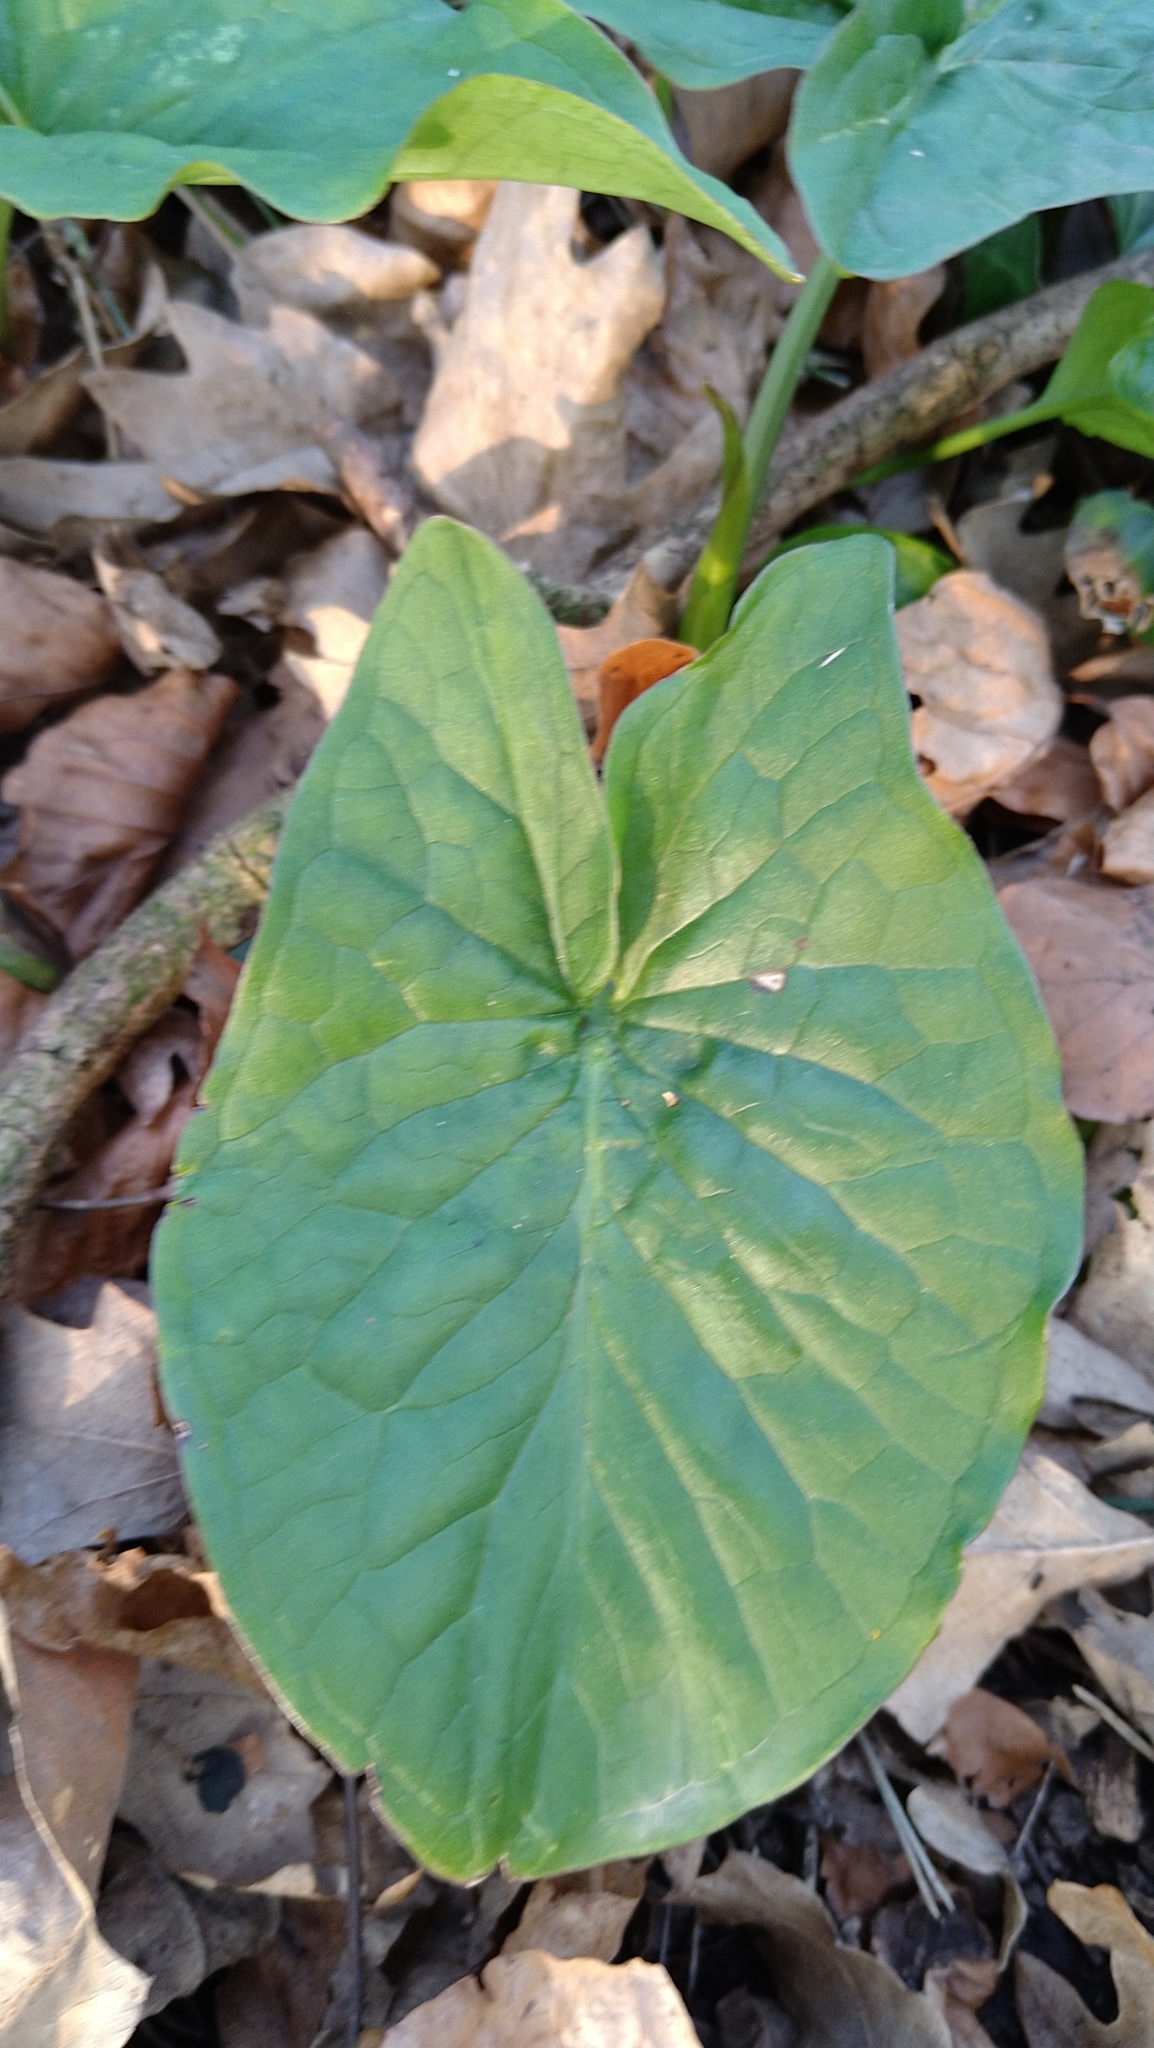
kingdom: Plantae
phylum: Tracheophyta
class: Liliopsida
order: Alismatales
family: Araceae
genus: Arum
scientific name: Arum maculatum
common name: Lords-and-ladies
